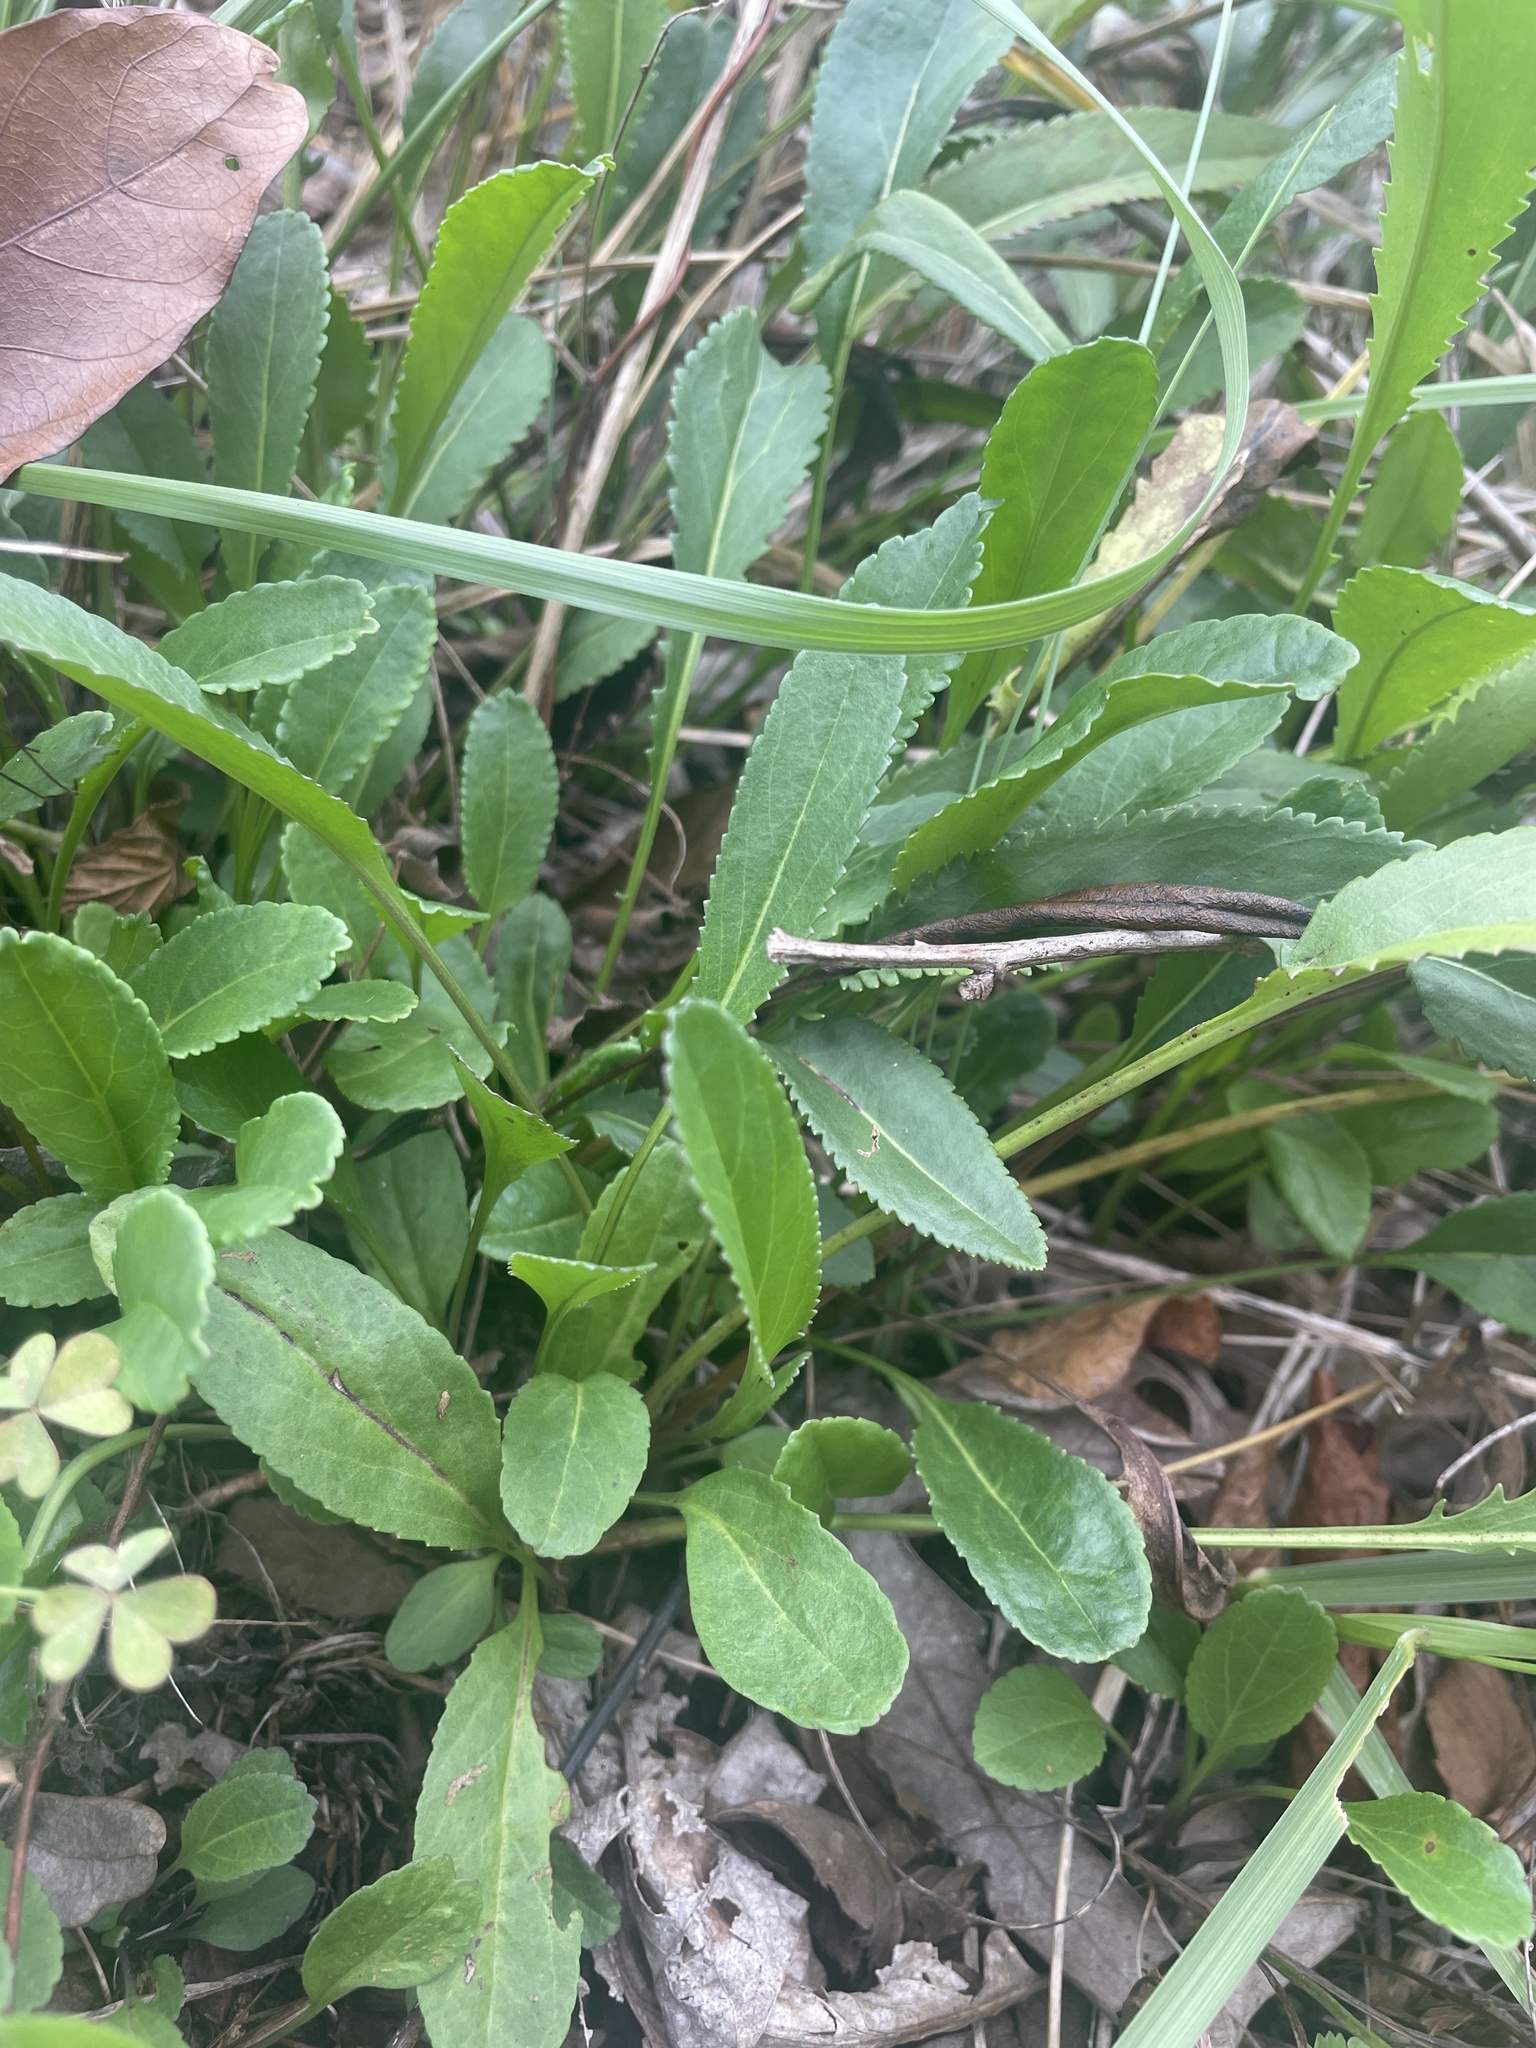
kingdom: Plantae
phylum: Tracheophyta
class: Magnoliopsida
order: Asterales
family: Asteraceae
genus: Packera
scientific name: Packera anonyma
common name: Small ragwort
